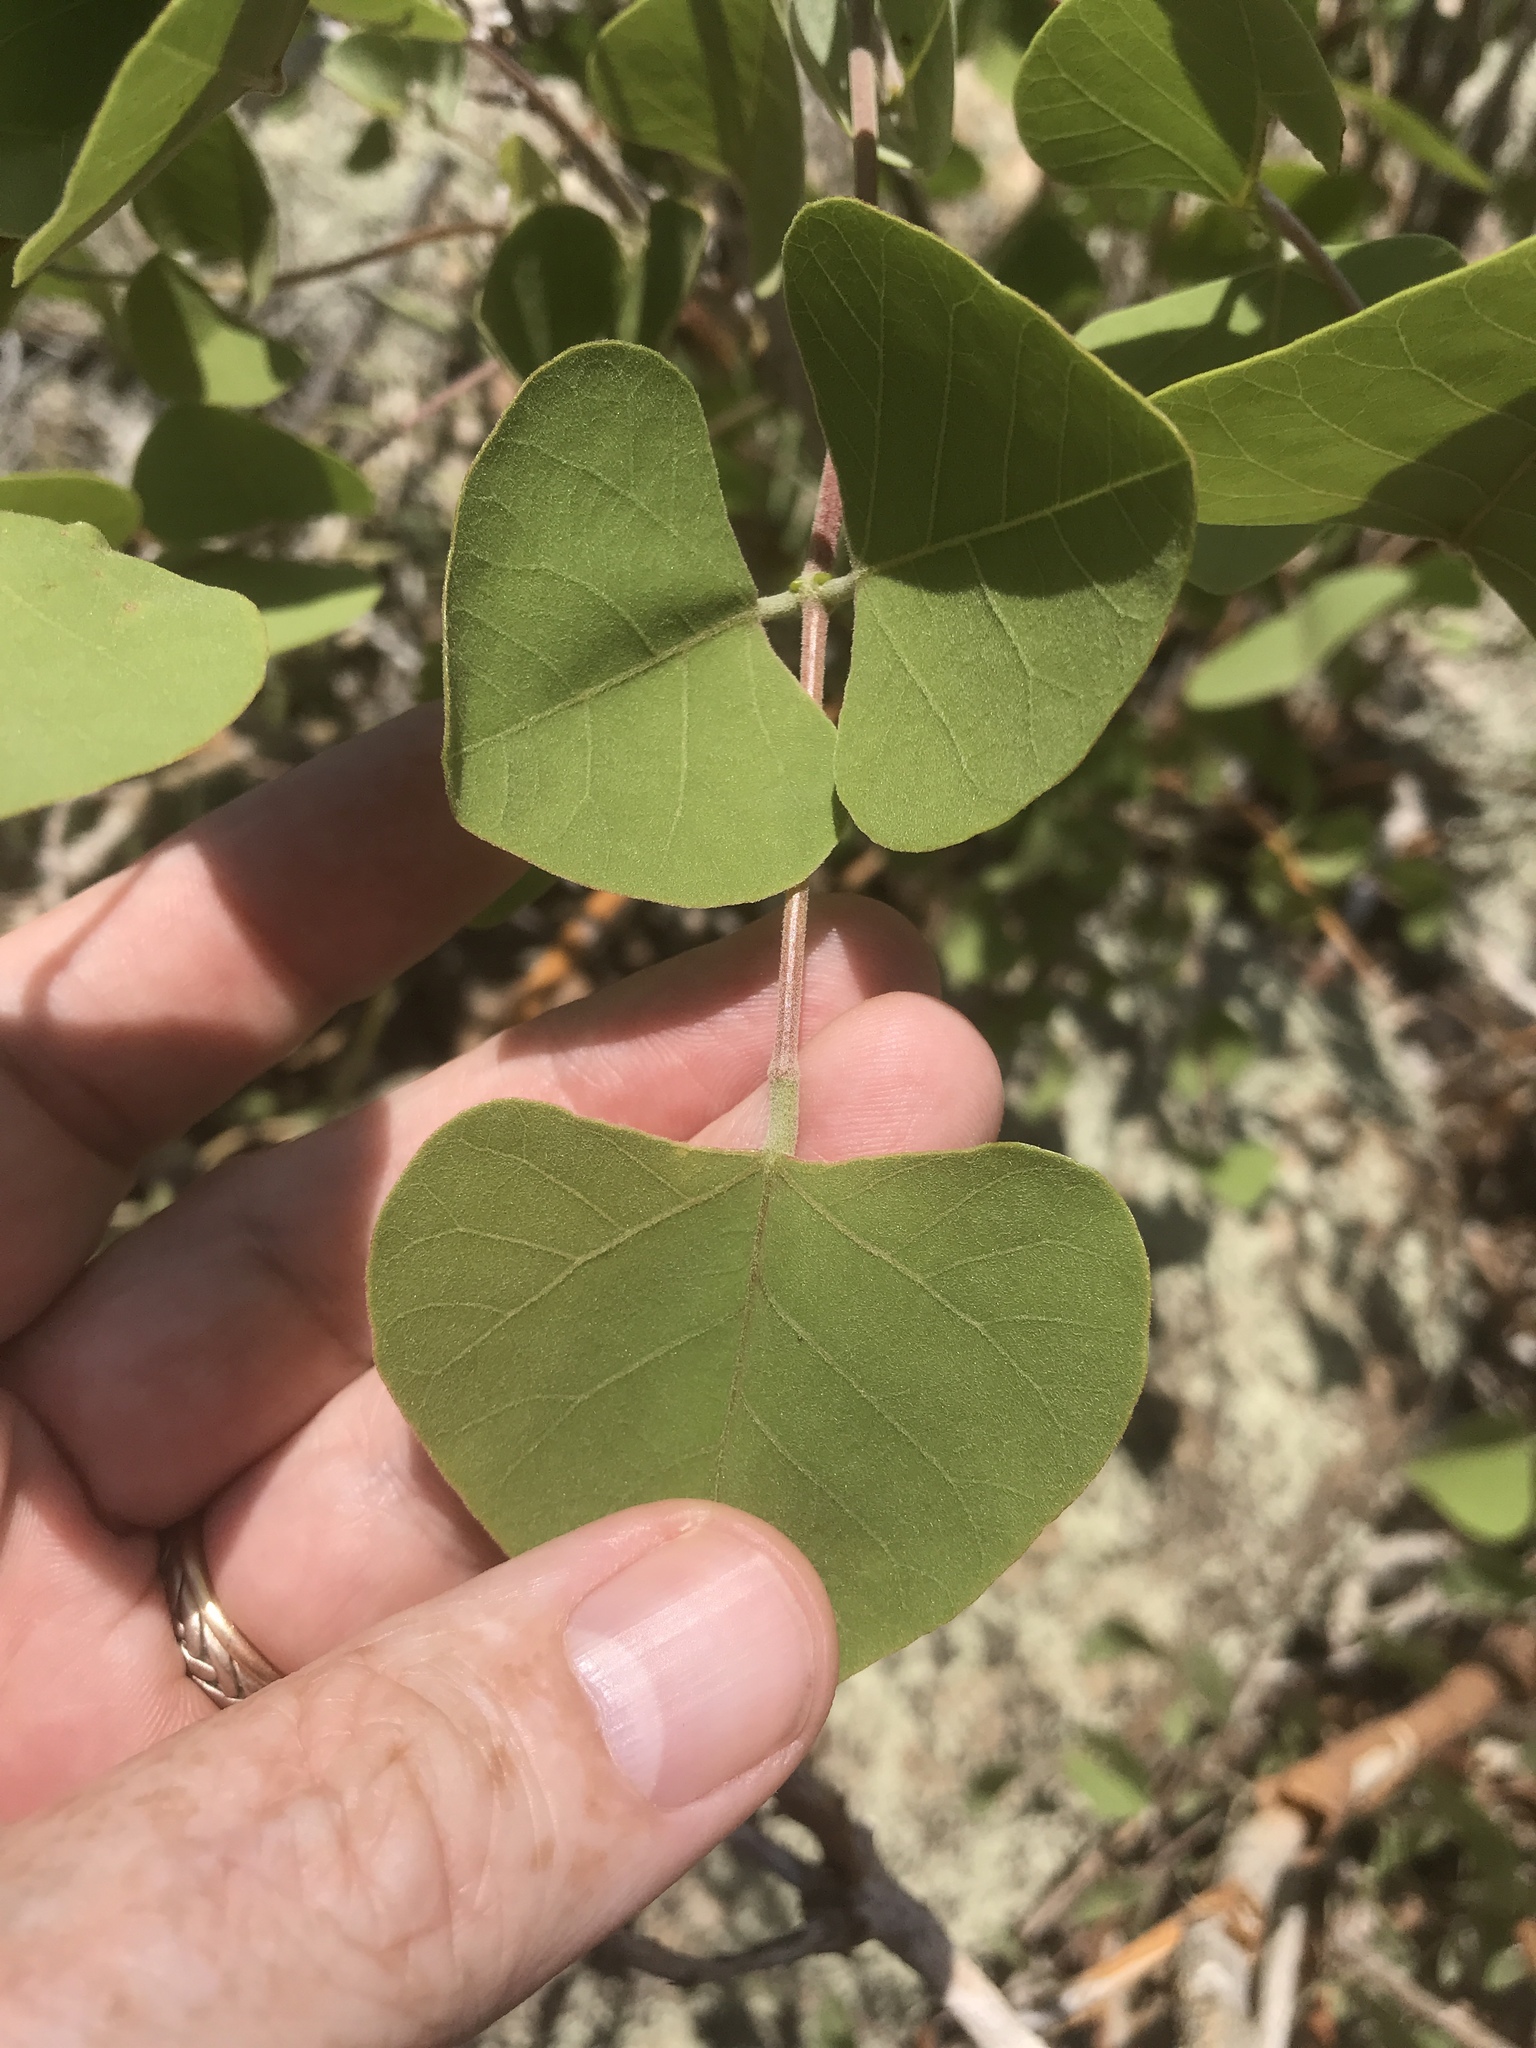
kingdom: Plantae
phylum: Tracheophyta
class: Magnoliopsida
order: Fabales
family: Fabaceae
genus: Erythrina
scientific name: Erythrina flabelliformis
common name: Chilicote
